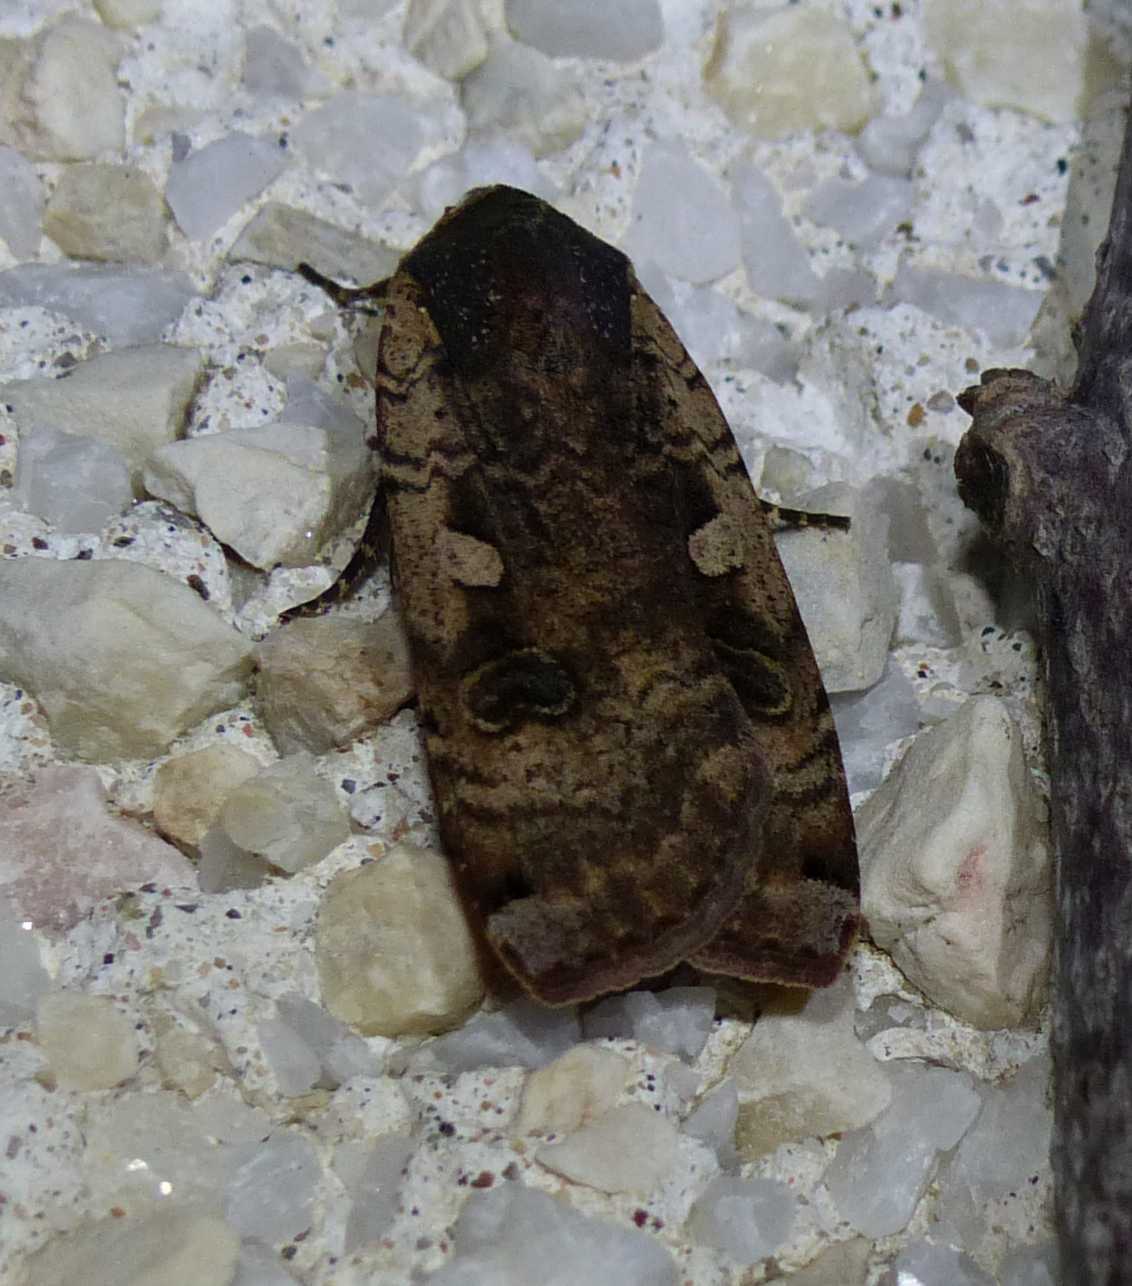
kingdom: Animalia
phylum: Arthropoda
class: Insecta
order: Lepidoptera
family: Noctuidae
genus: Noctua
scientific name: Noctua pronuba
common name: Large yellow underwing
